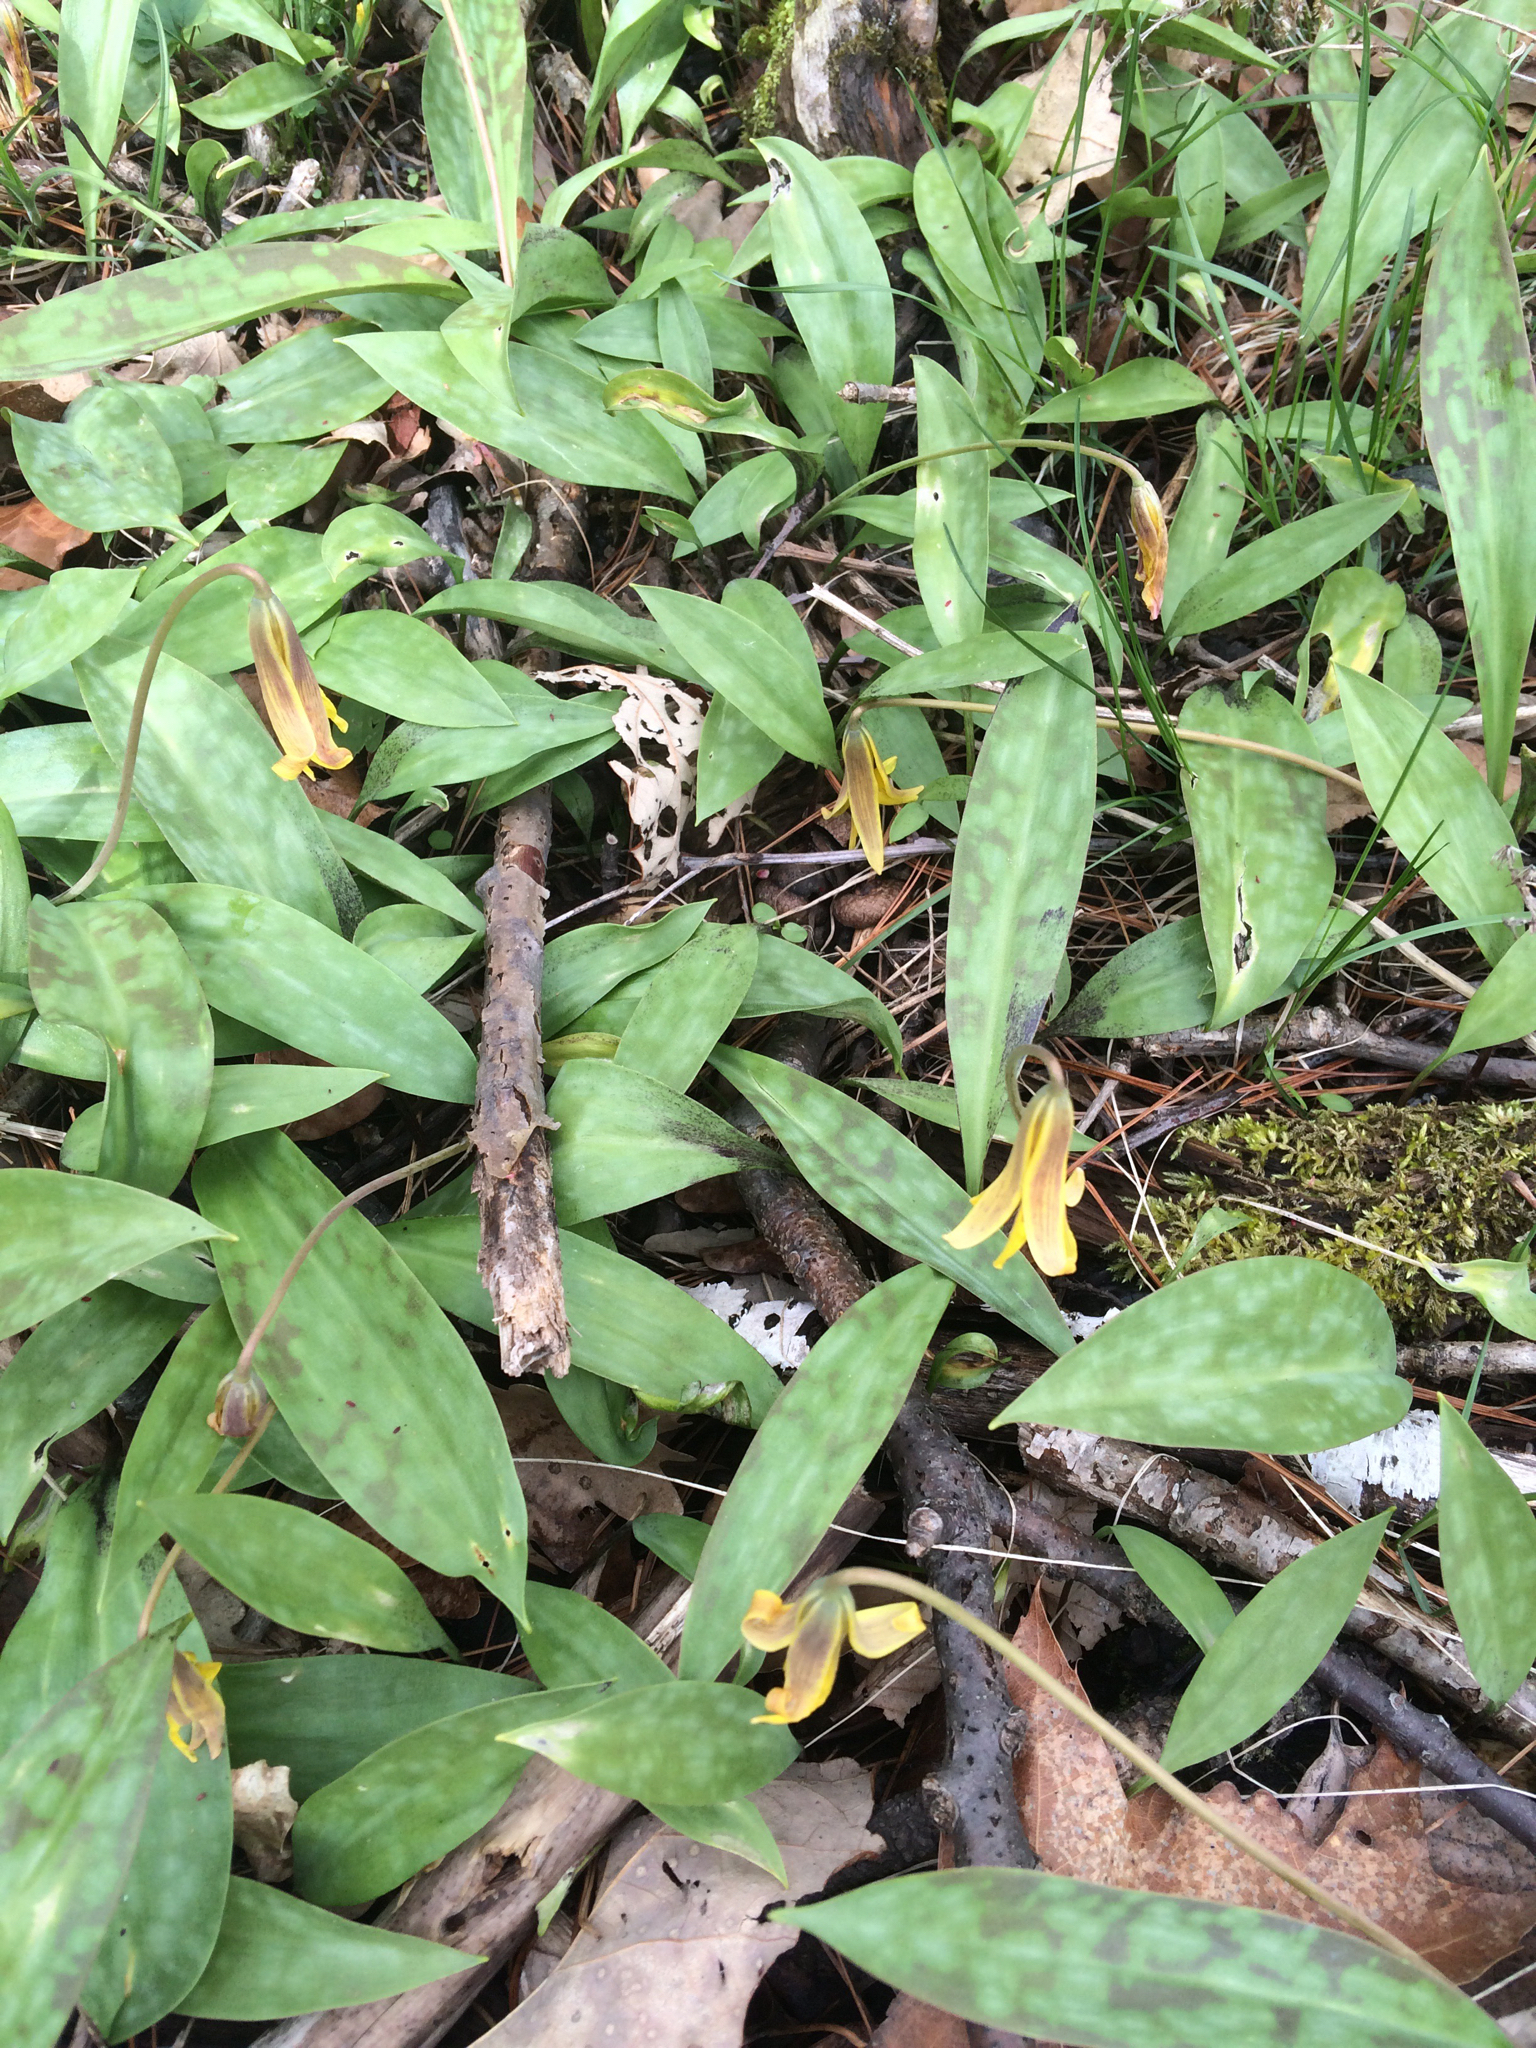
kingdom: Plantae
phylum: Tracheophyta
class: Liliopsida
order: Liliales
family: Liliaceae
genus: Erythronium
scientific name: Erythronium americanum
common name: Yellow adder's-tongue
